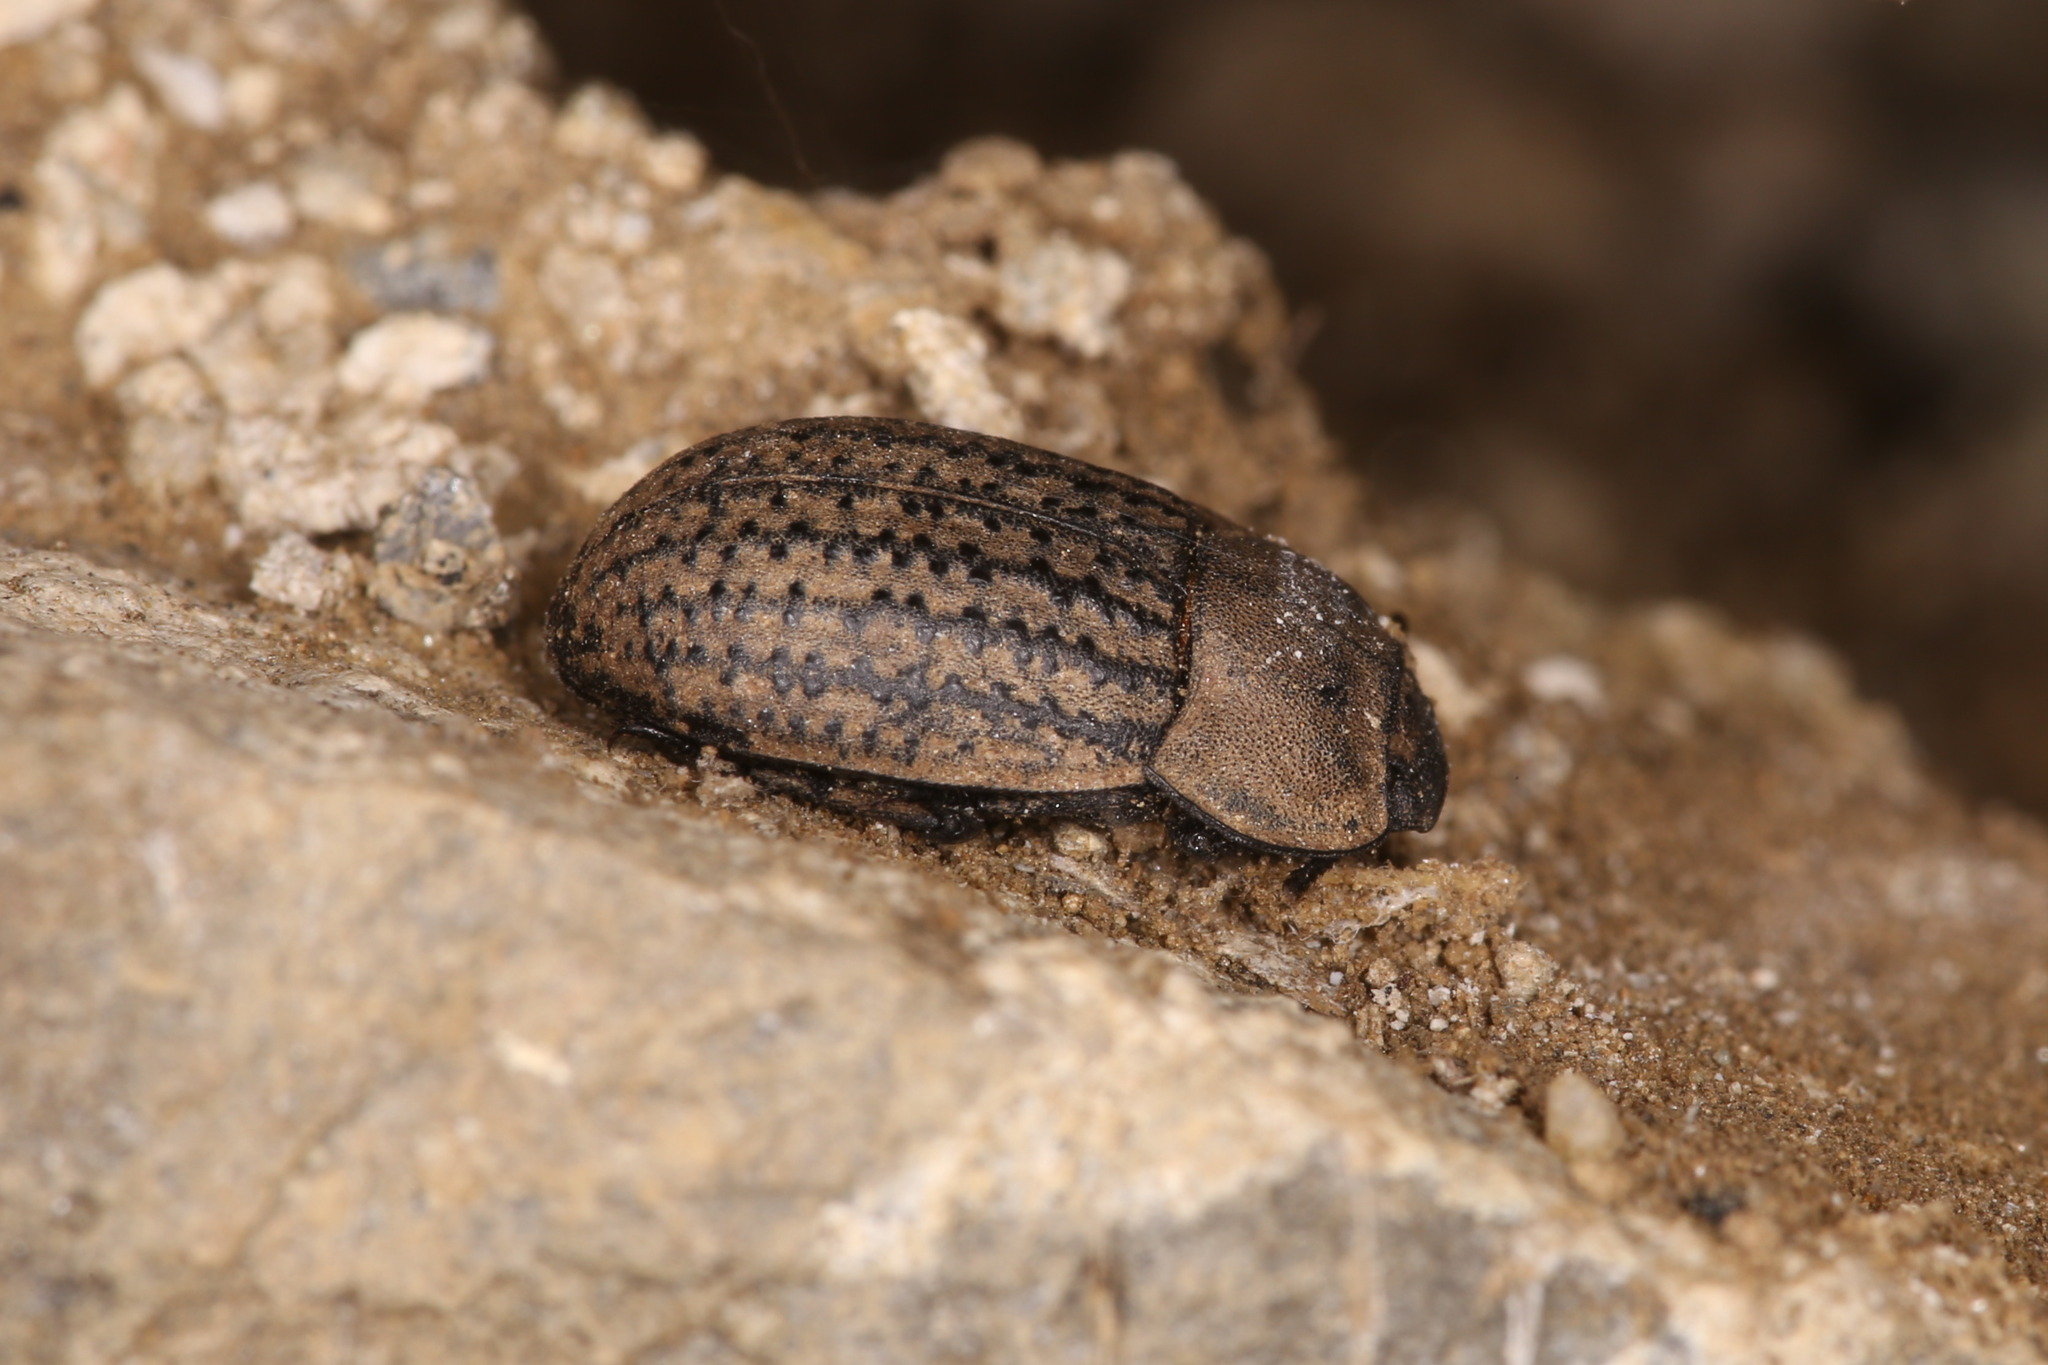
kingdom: Animalia
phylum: Arthropoda
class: Insecta
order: Coleoptera
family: Tenebrionidae
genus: Opatrum
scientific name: Opatrum sabulosum
